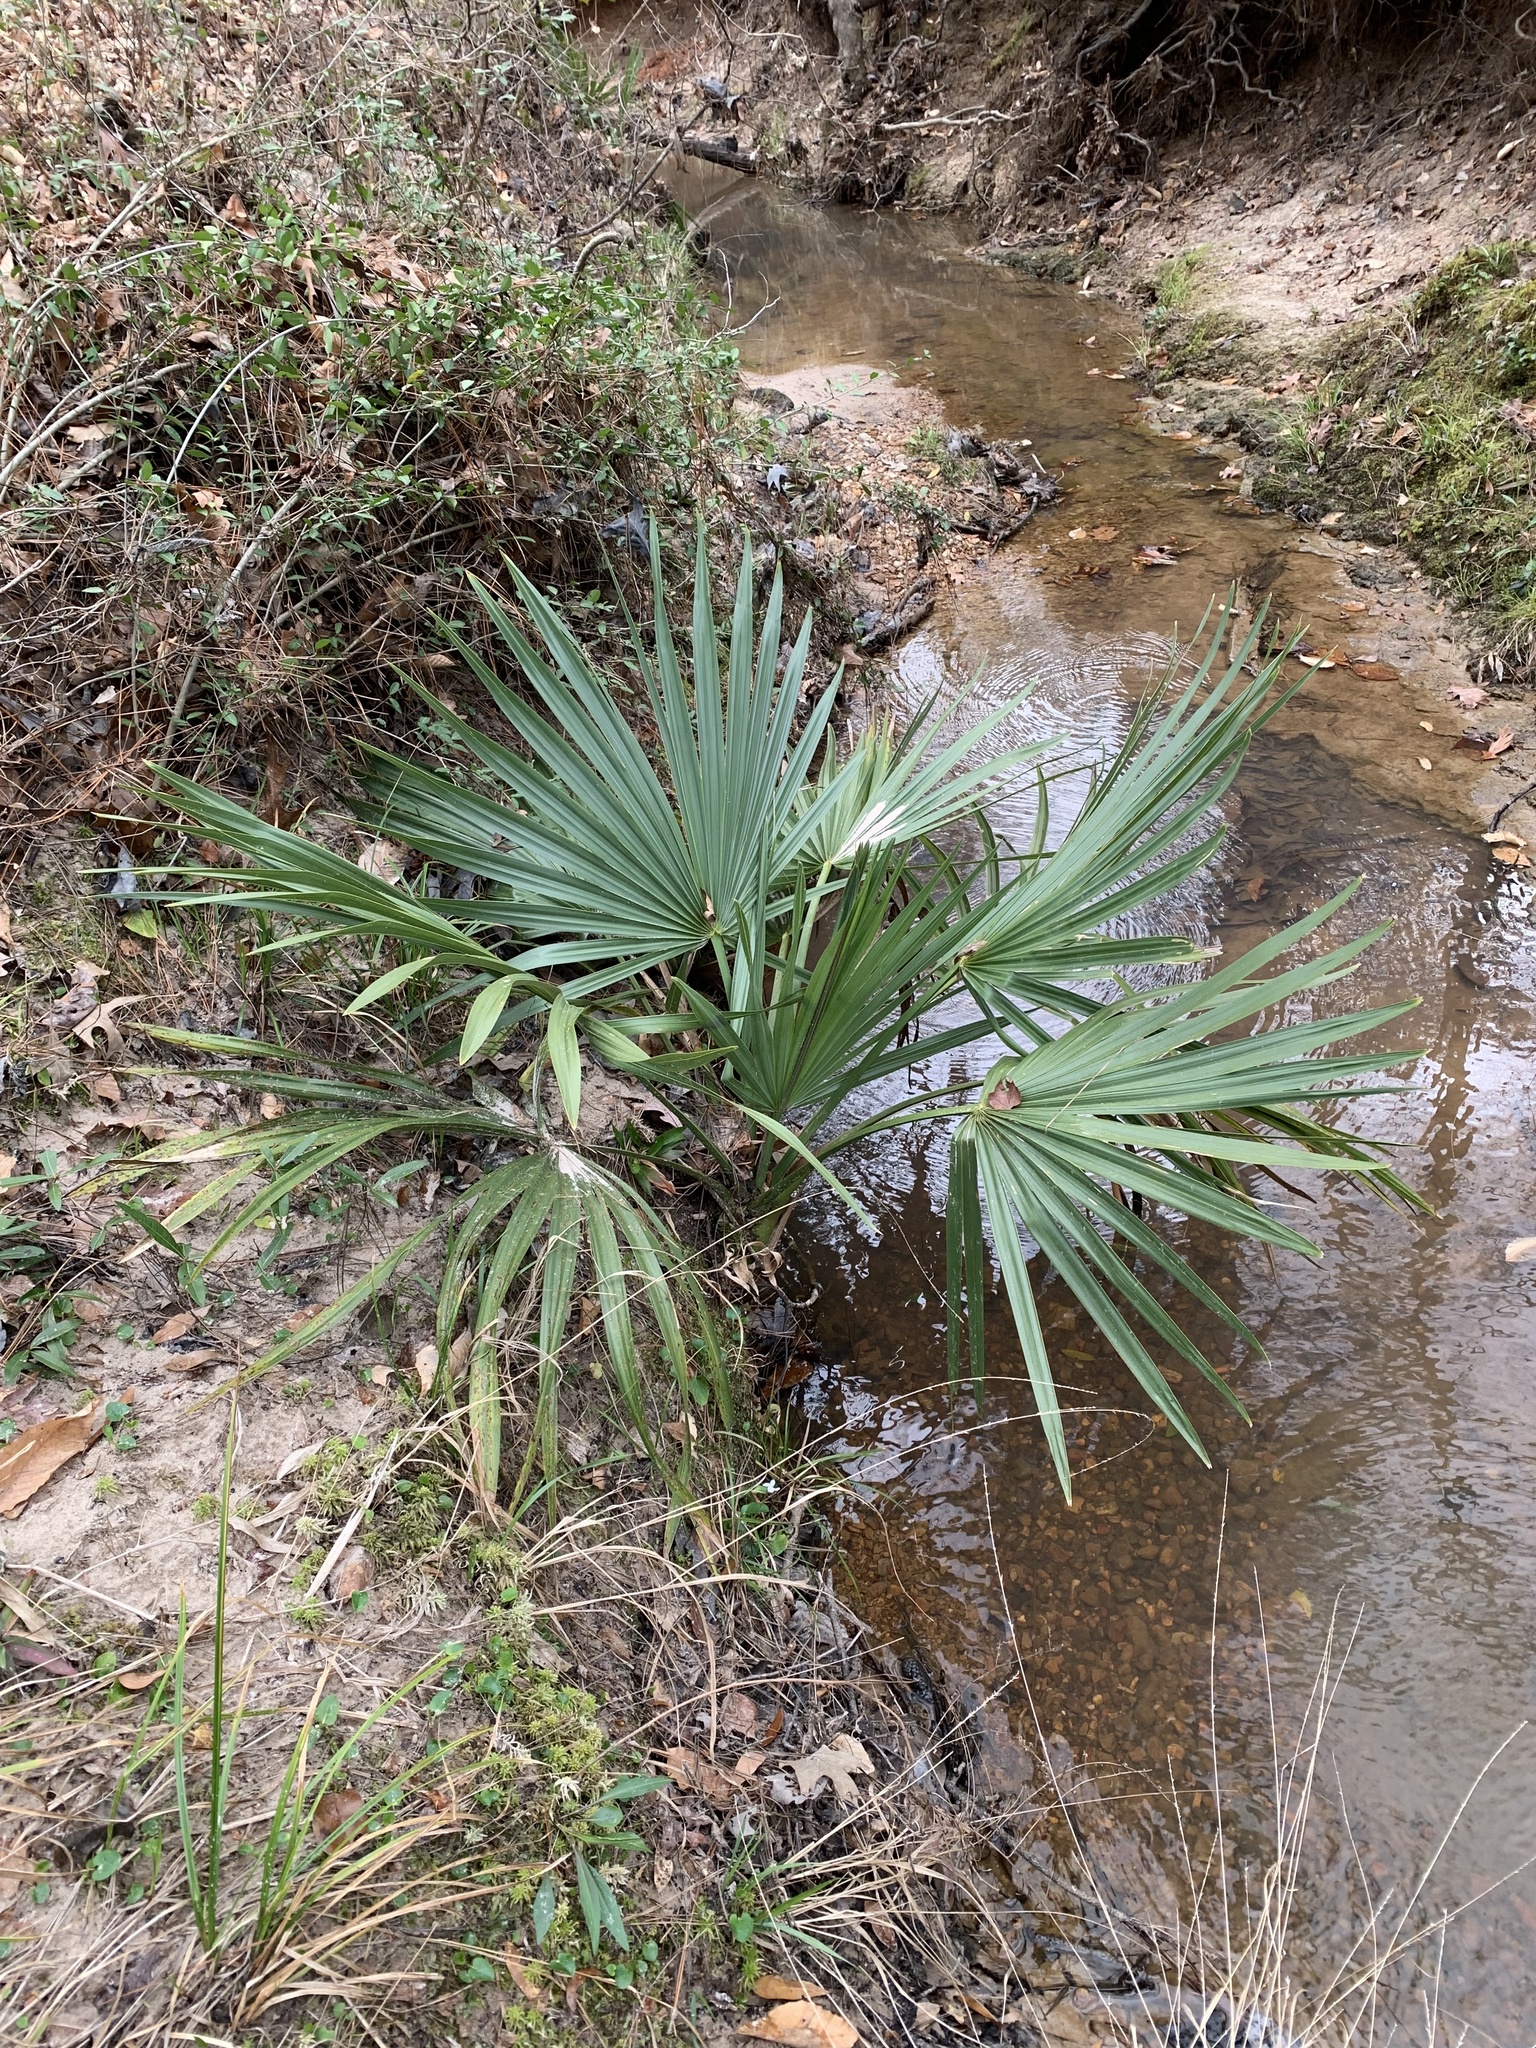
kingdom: Plantae
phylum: Tracheophyta
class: Liliopsida
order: Arecales
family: Arecaceae
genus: Sabal
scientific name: Sabal minor
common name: Dwarf palmetto
